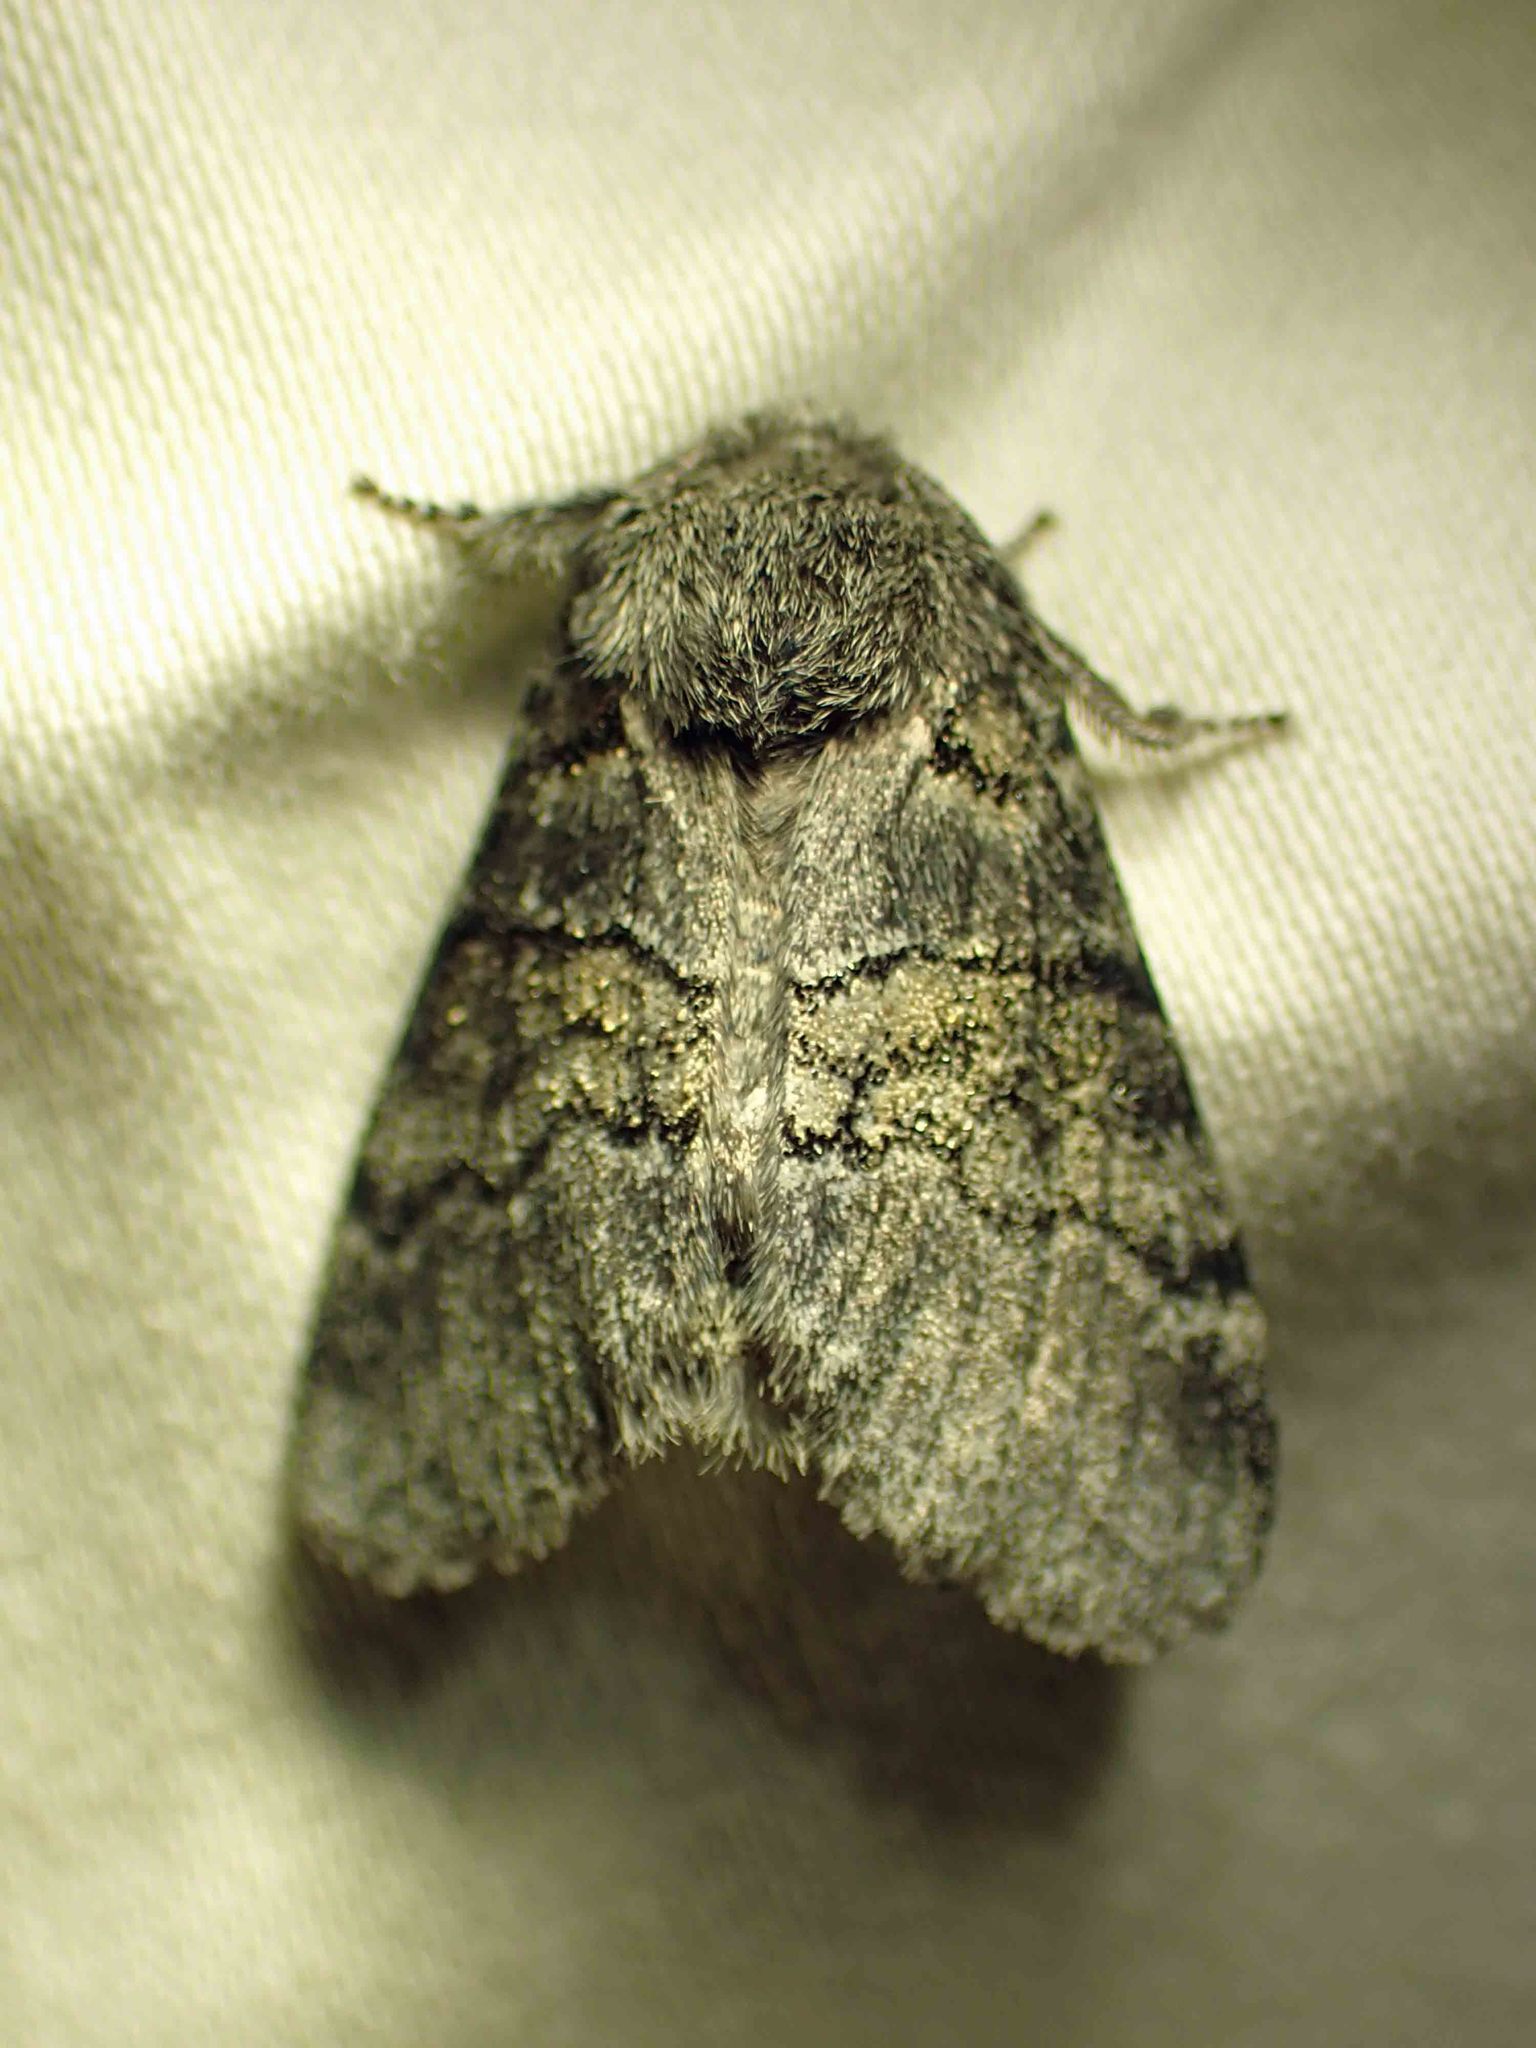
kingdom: Animalia
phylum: Arthropoda
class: Insecta
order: Lepidoptera
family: Notodontidae
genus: Gluphisia
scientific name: Gluphisia septentrionis
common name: Common gluphisia
